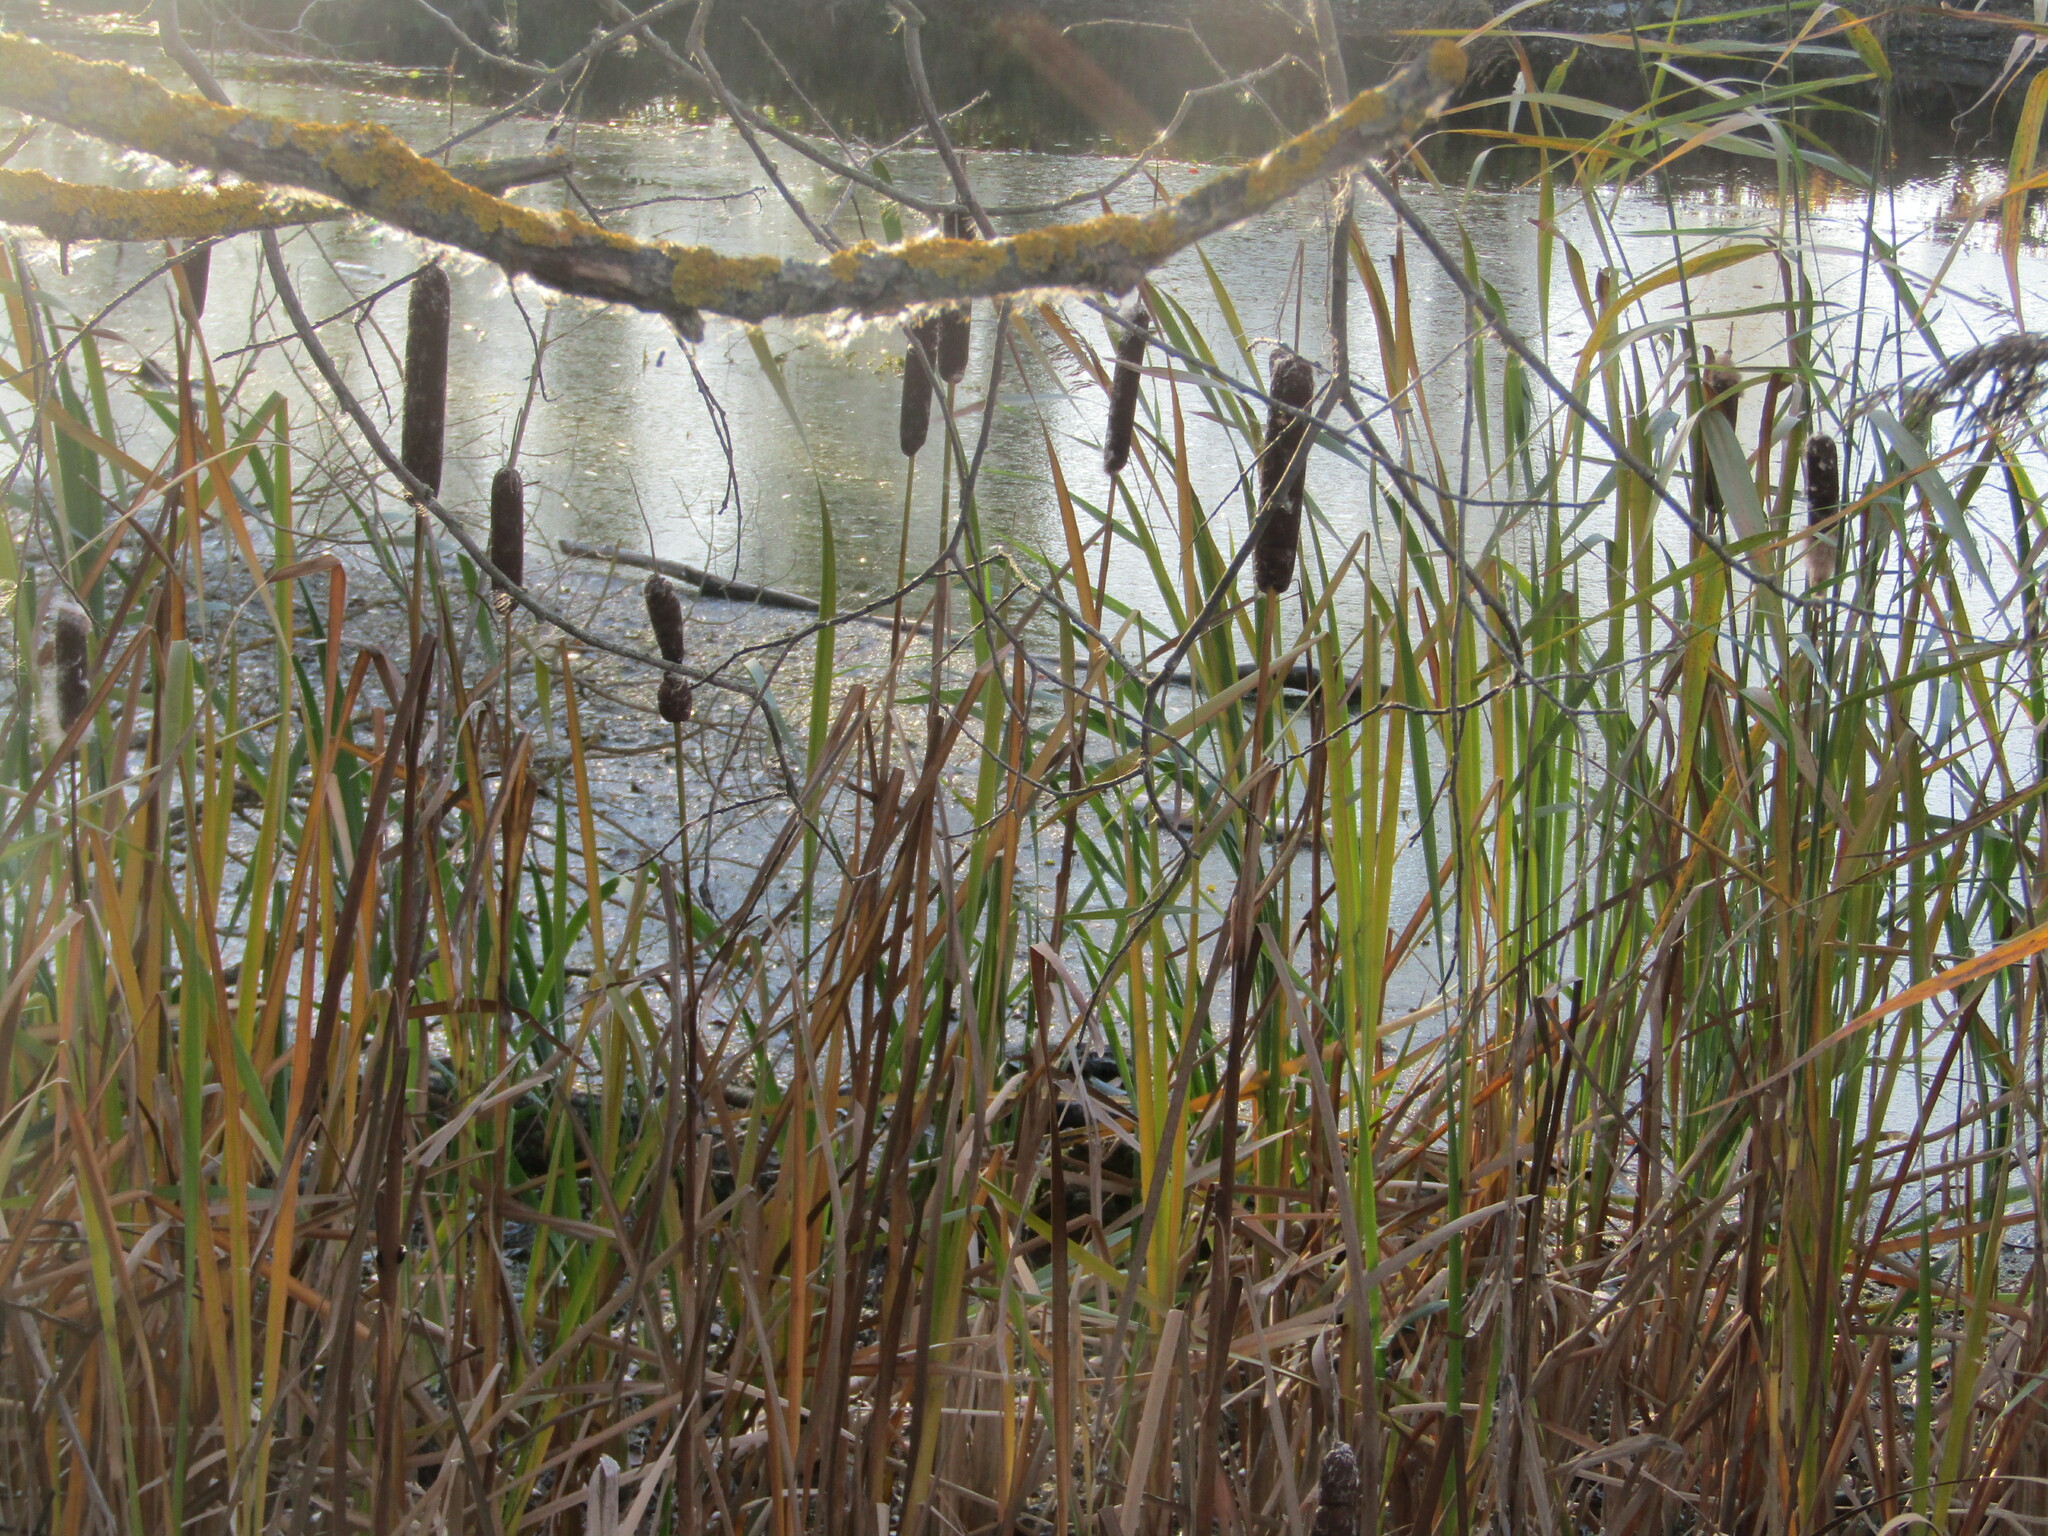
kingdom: Plantae
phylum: Tracheophyta
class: Liliopsida
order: Poales
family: Typhaceae
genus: Typha
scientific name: Typha latifolia
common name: Broadleaf cattail
